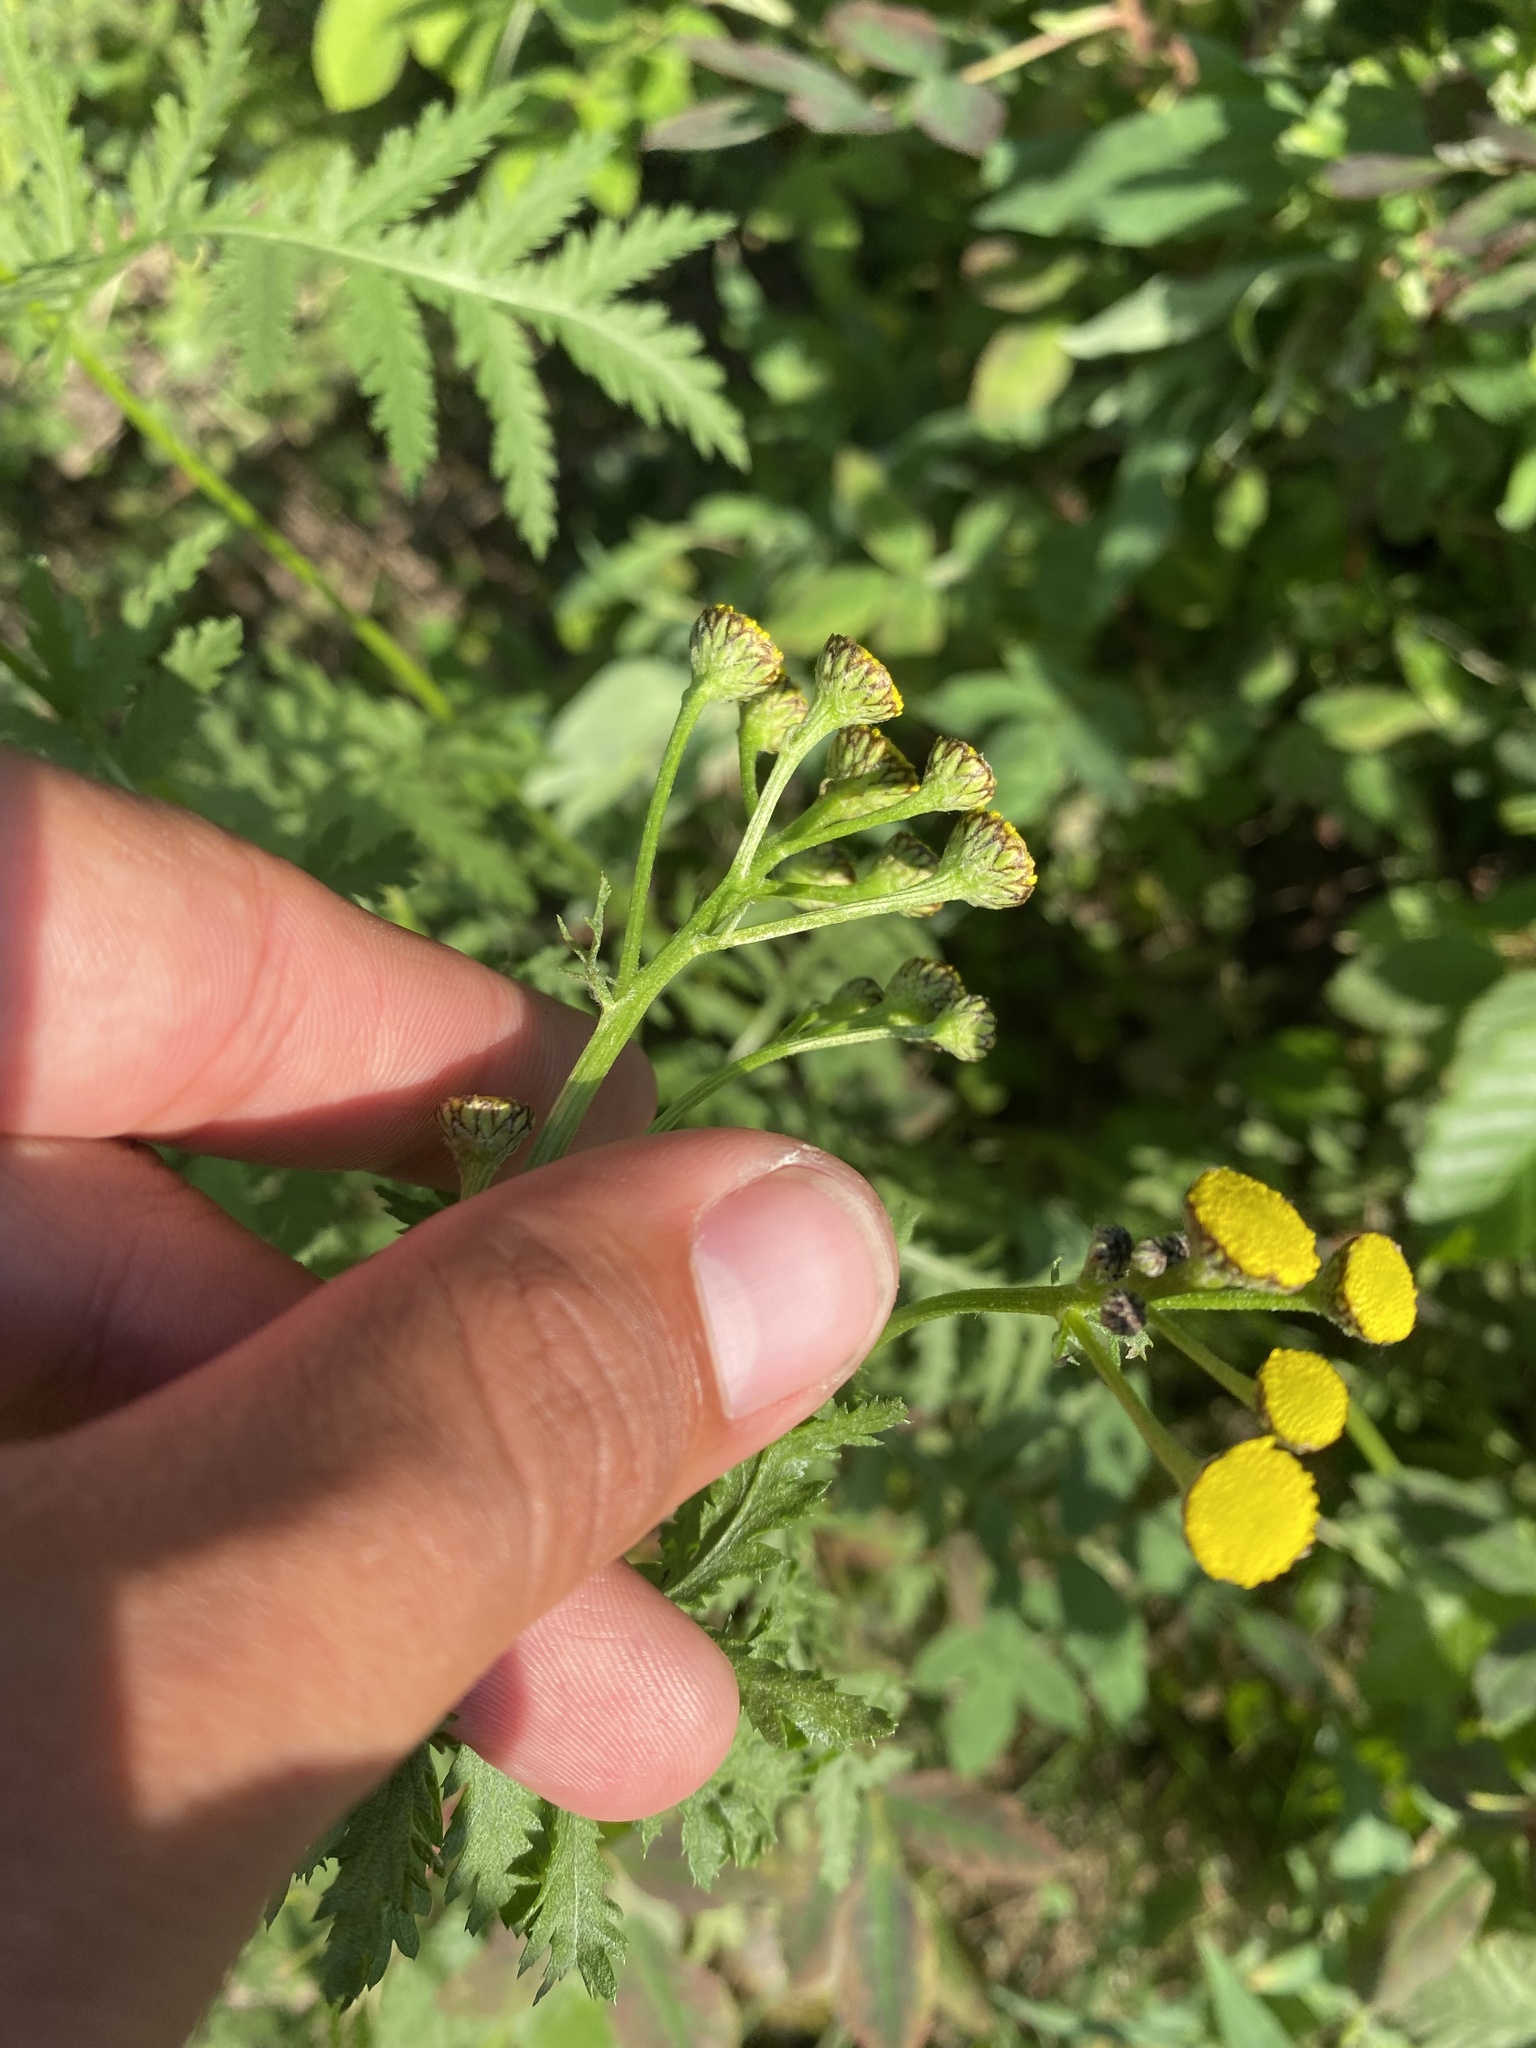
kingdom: Plantae
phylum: Tracheophyta
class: Magnoliopsida
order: Asterales
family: Asteraceae
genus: Tanacetum
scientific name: Tanacetum vulgare
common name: Common tansy
